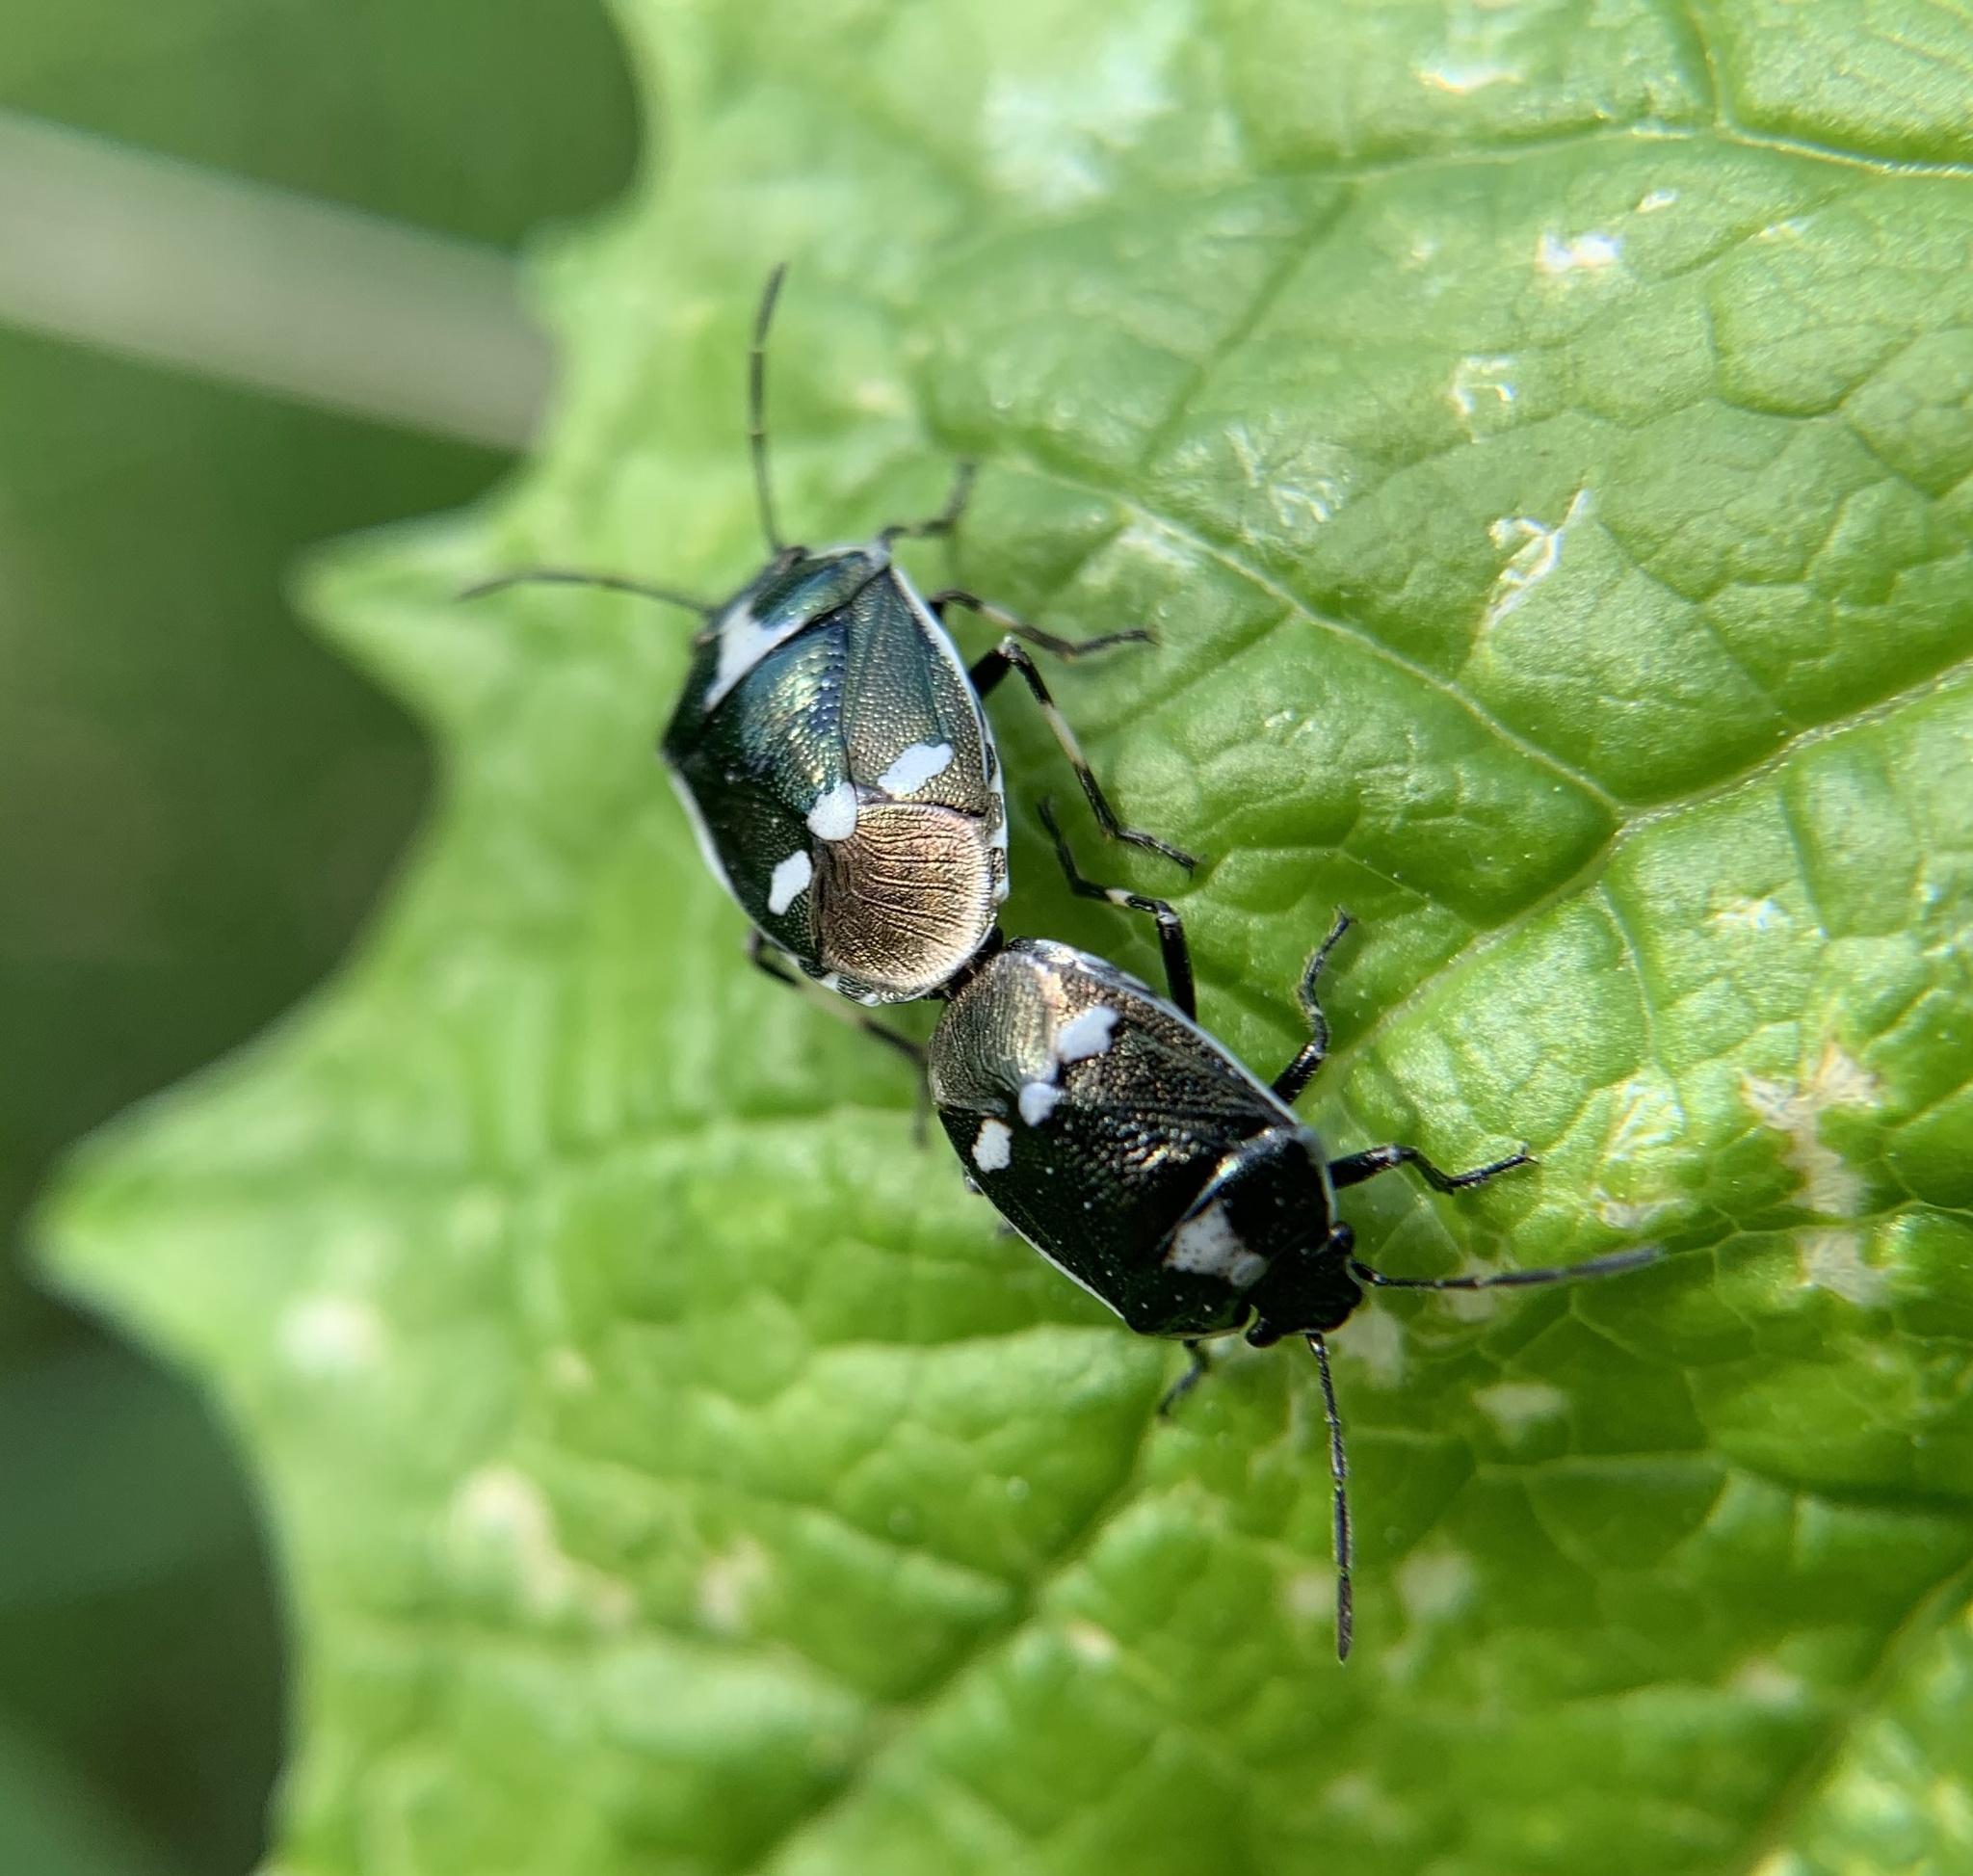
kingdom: Animalia
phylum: Arthropoda
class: Insecta
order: Hemiptera
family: Pentatomidae
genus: Eurydema
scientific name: Eurydema oleracea
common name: Cabbage bug
